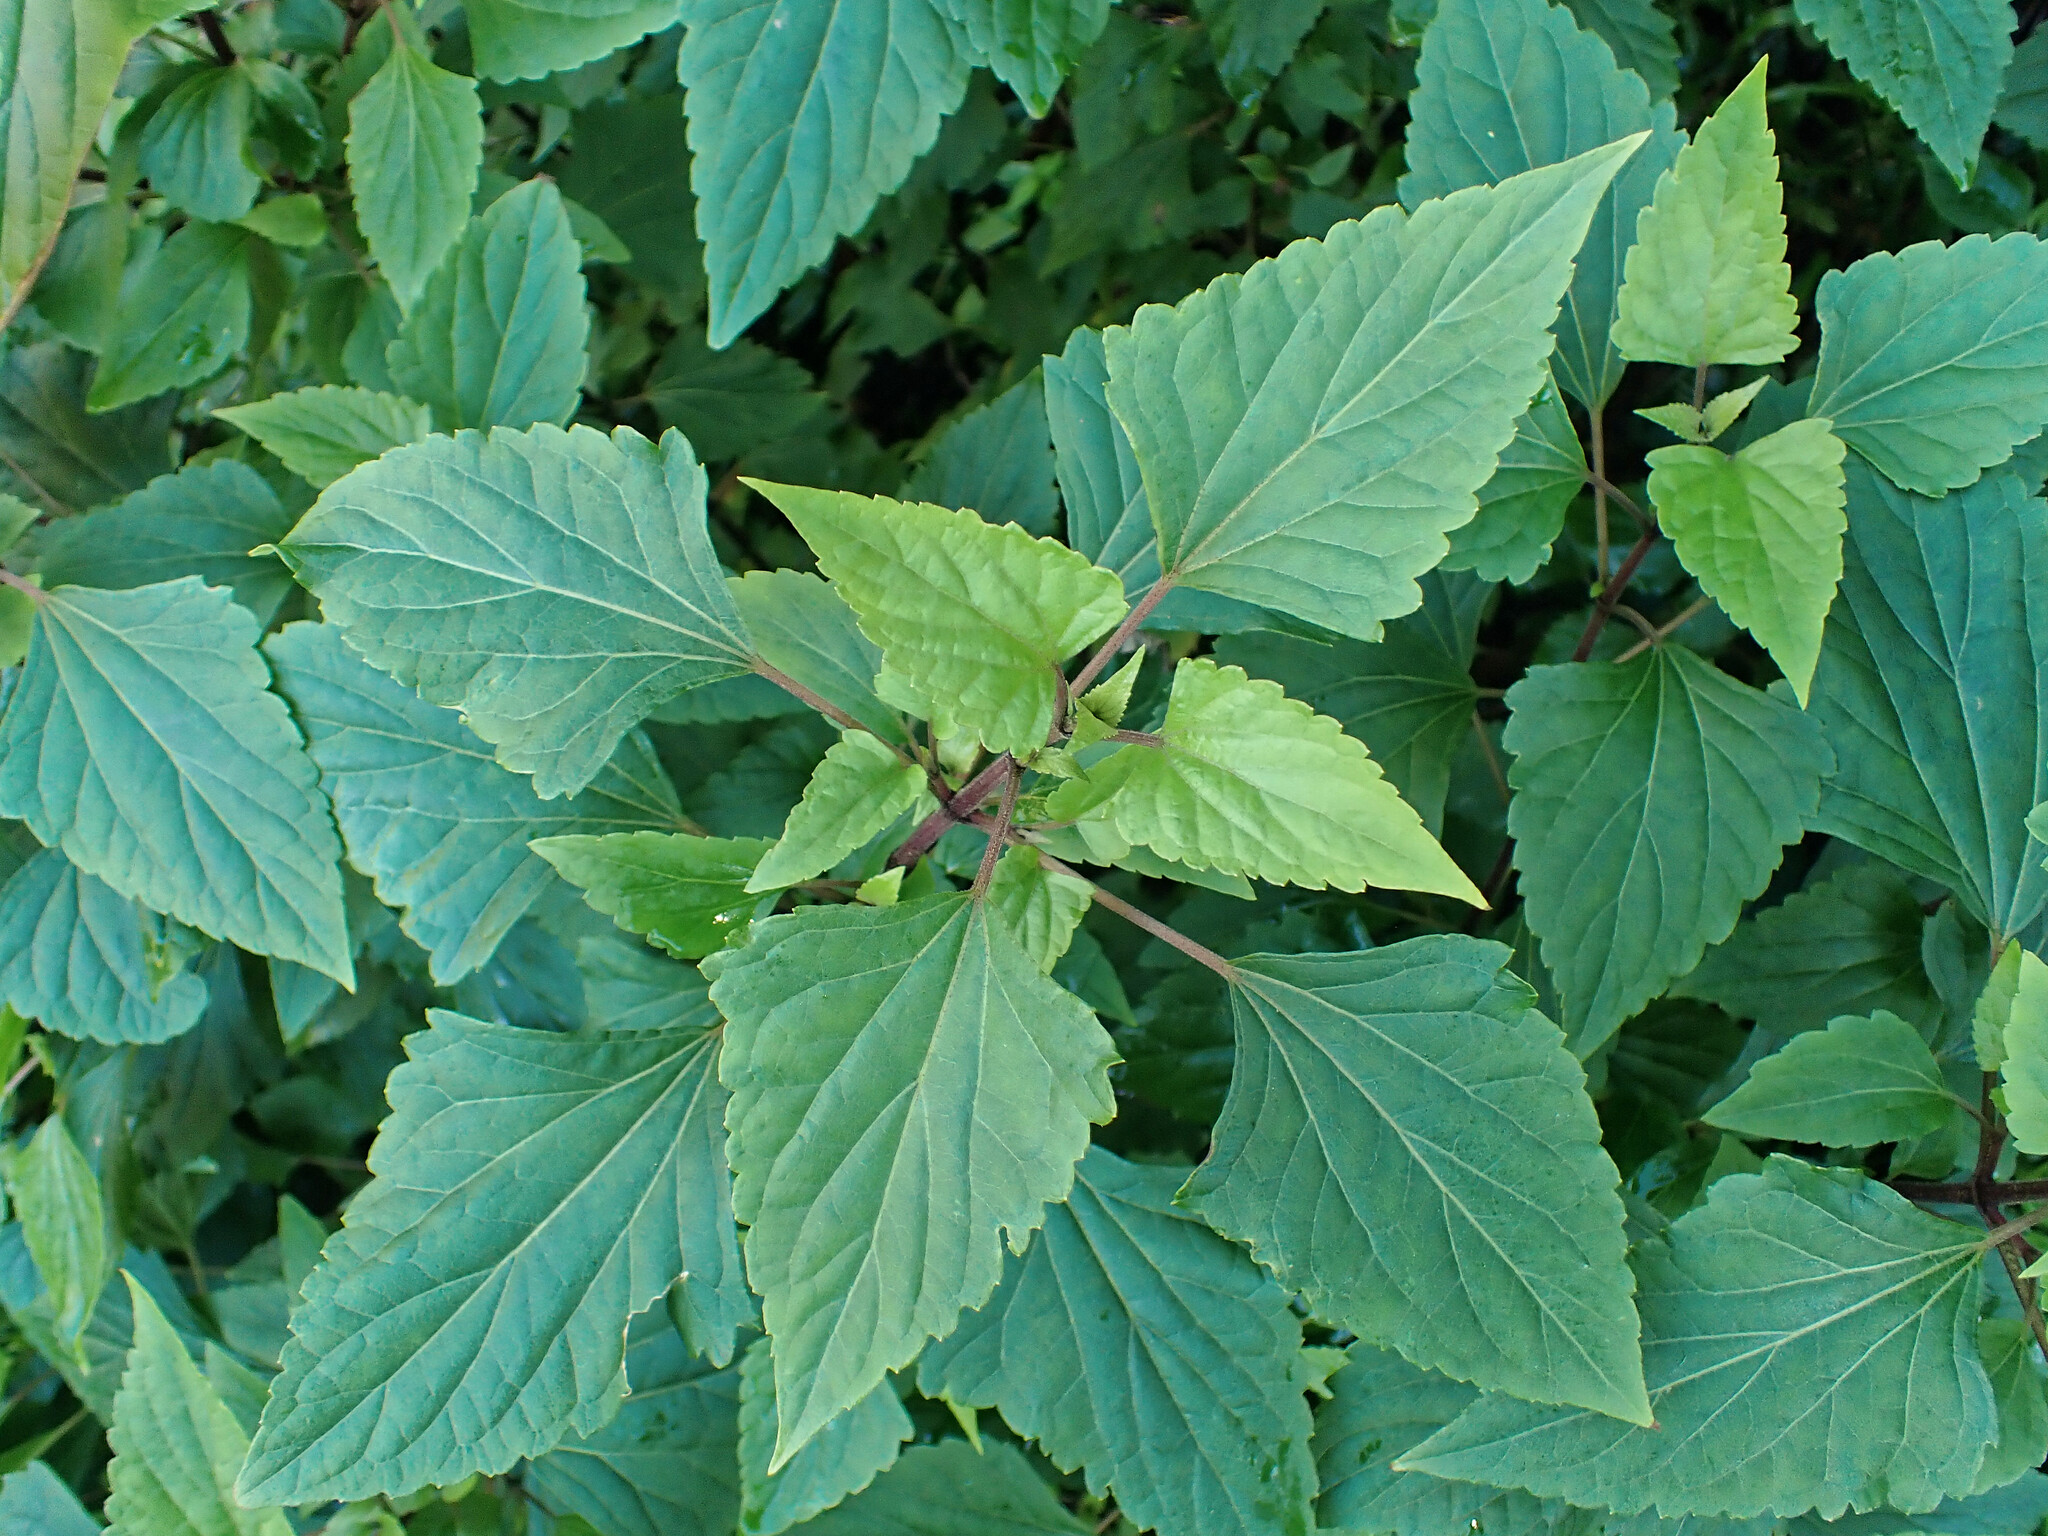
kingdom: Plantae
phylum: Tracheophyta
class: Magnoliopsida
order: Asterales
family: Asteraceae
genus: Ageratina
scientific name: Ageratina adenophora
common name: Sticky snakeroot
